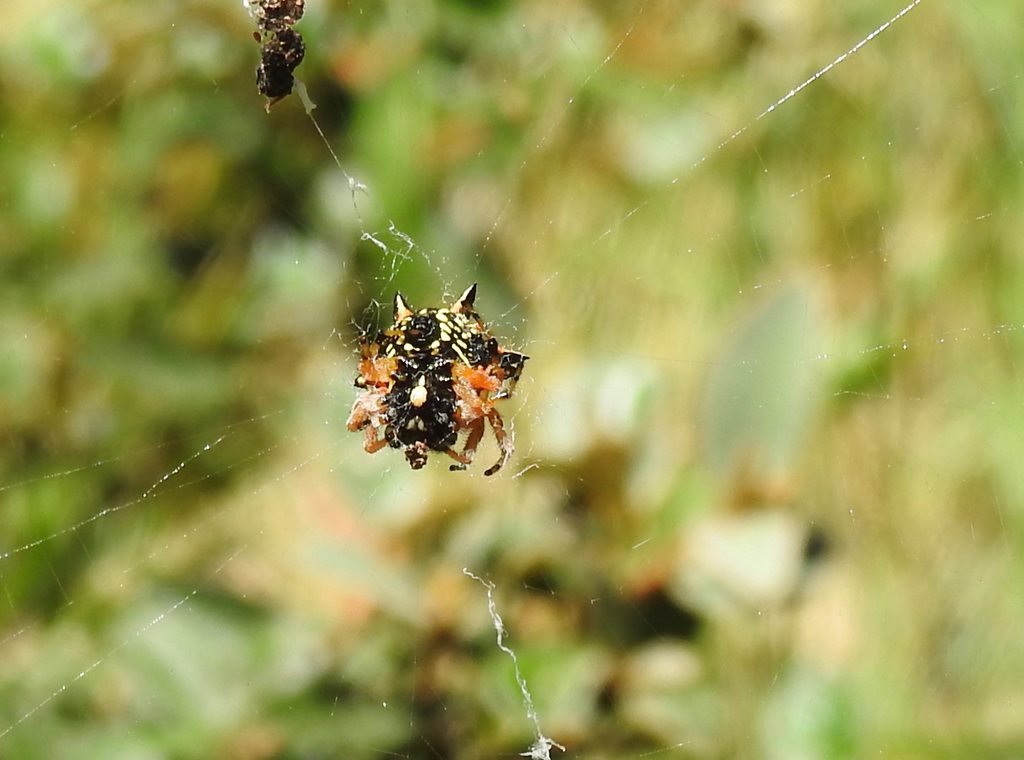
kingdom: Animalia
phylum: Arthropoda
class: Arachnida
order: Araneae
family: Araneidae
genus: Austracantha
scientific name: Austracantha minax
